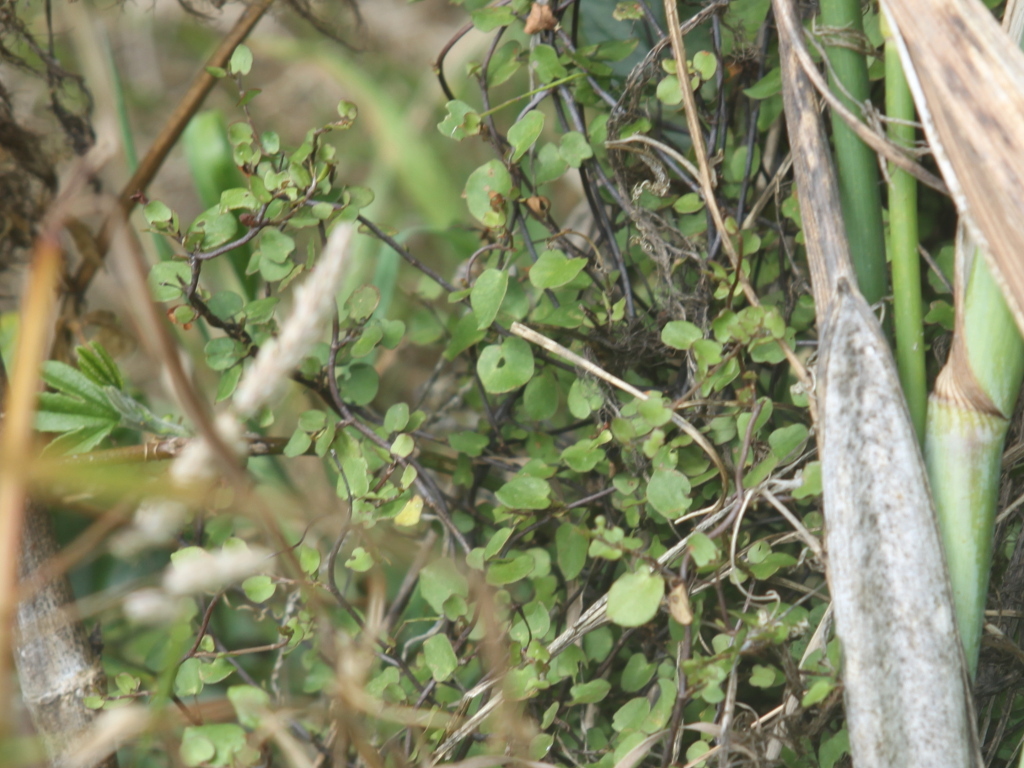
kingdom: Plantae
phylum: Tracheophyta
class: Magnoliopsida
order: Caryophyllales
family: Polygonaceae
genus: Muehlenbeckia
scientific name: Muehlenbeckia complexa
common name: Wireplant
